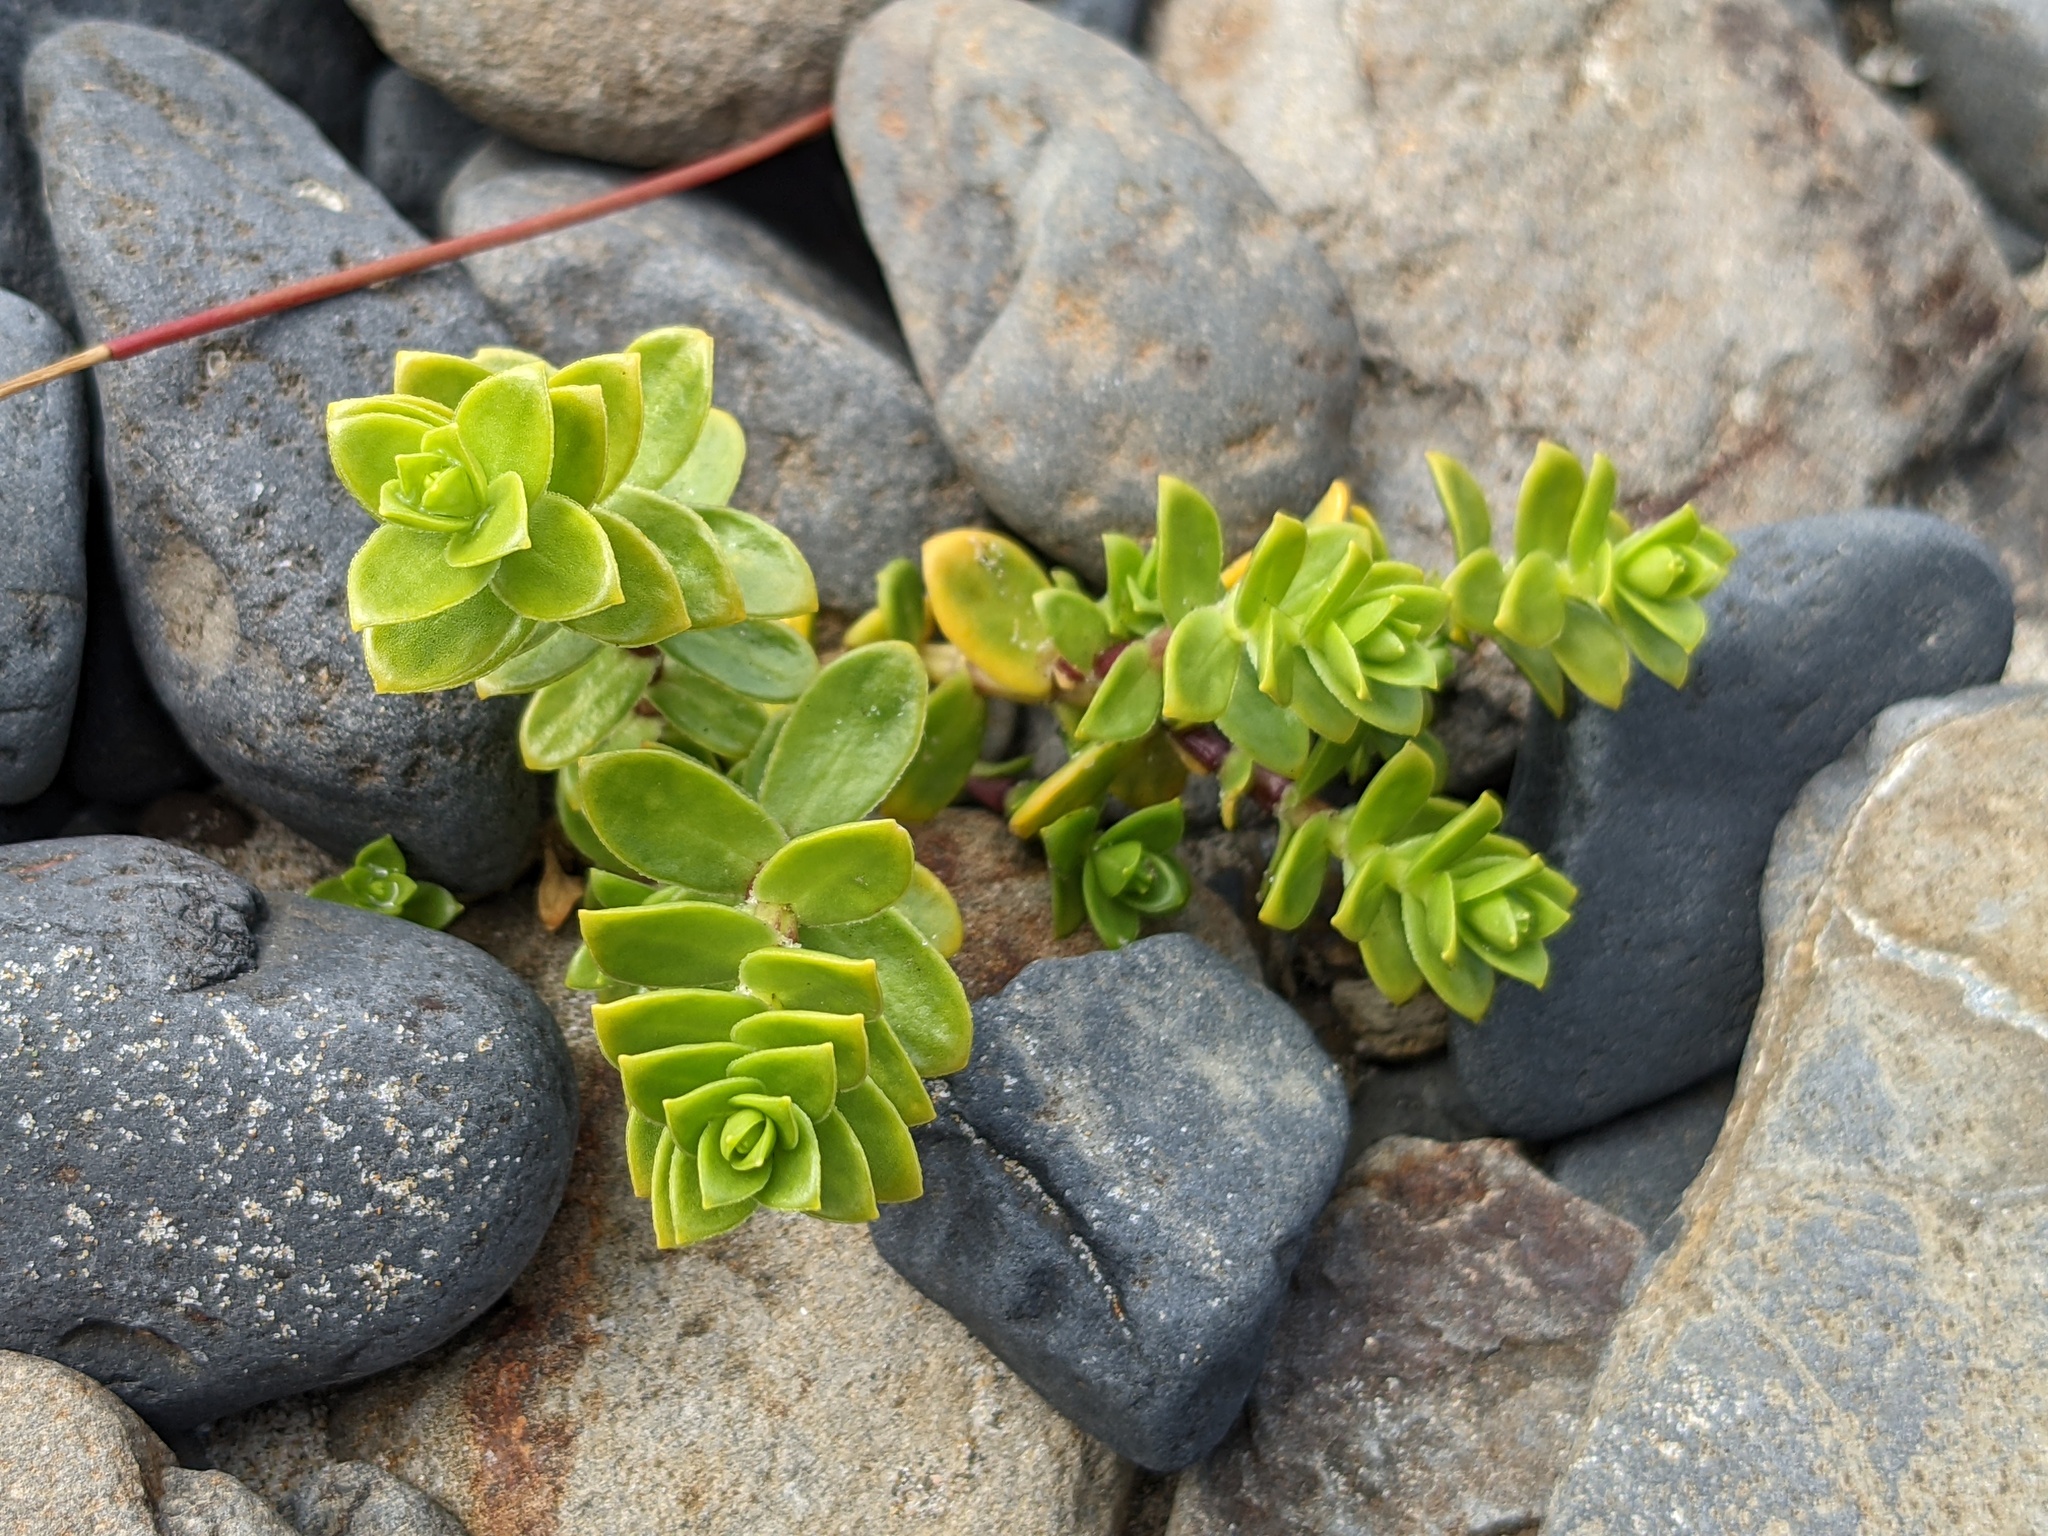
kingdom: Plantae
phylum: Tracheophyta
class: Magnoliopsida
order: Caryophyllales
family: Caryophyllaceae
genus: Honckenya
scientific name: Honckenya peploides
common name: Sea sandwort
